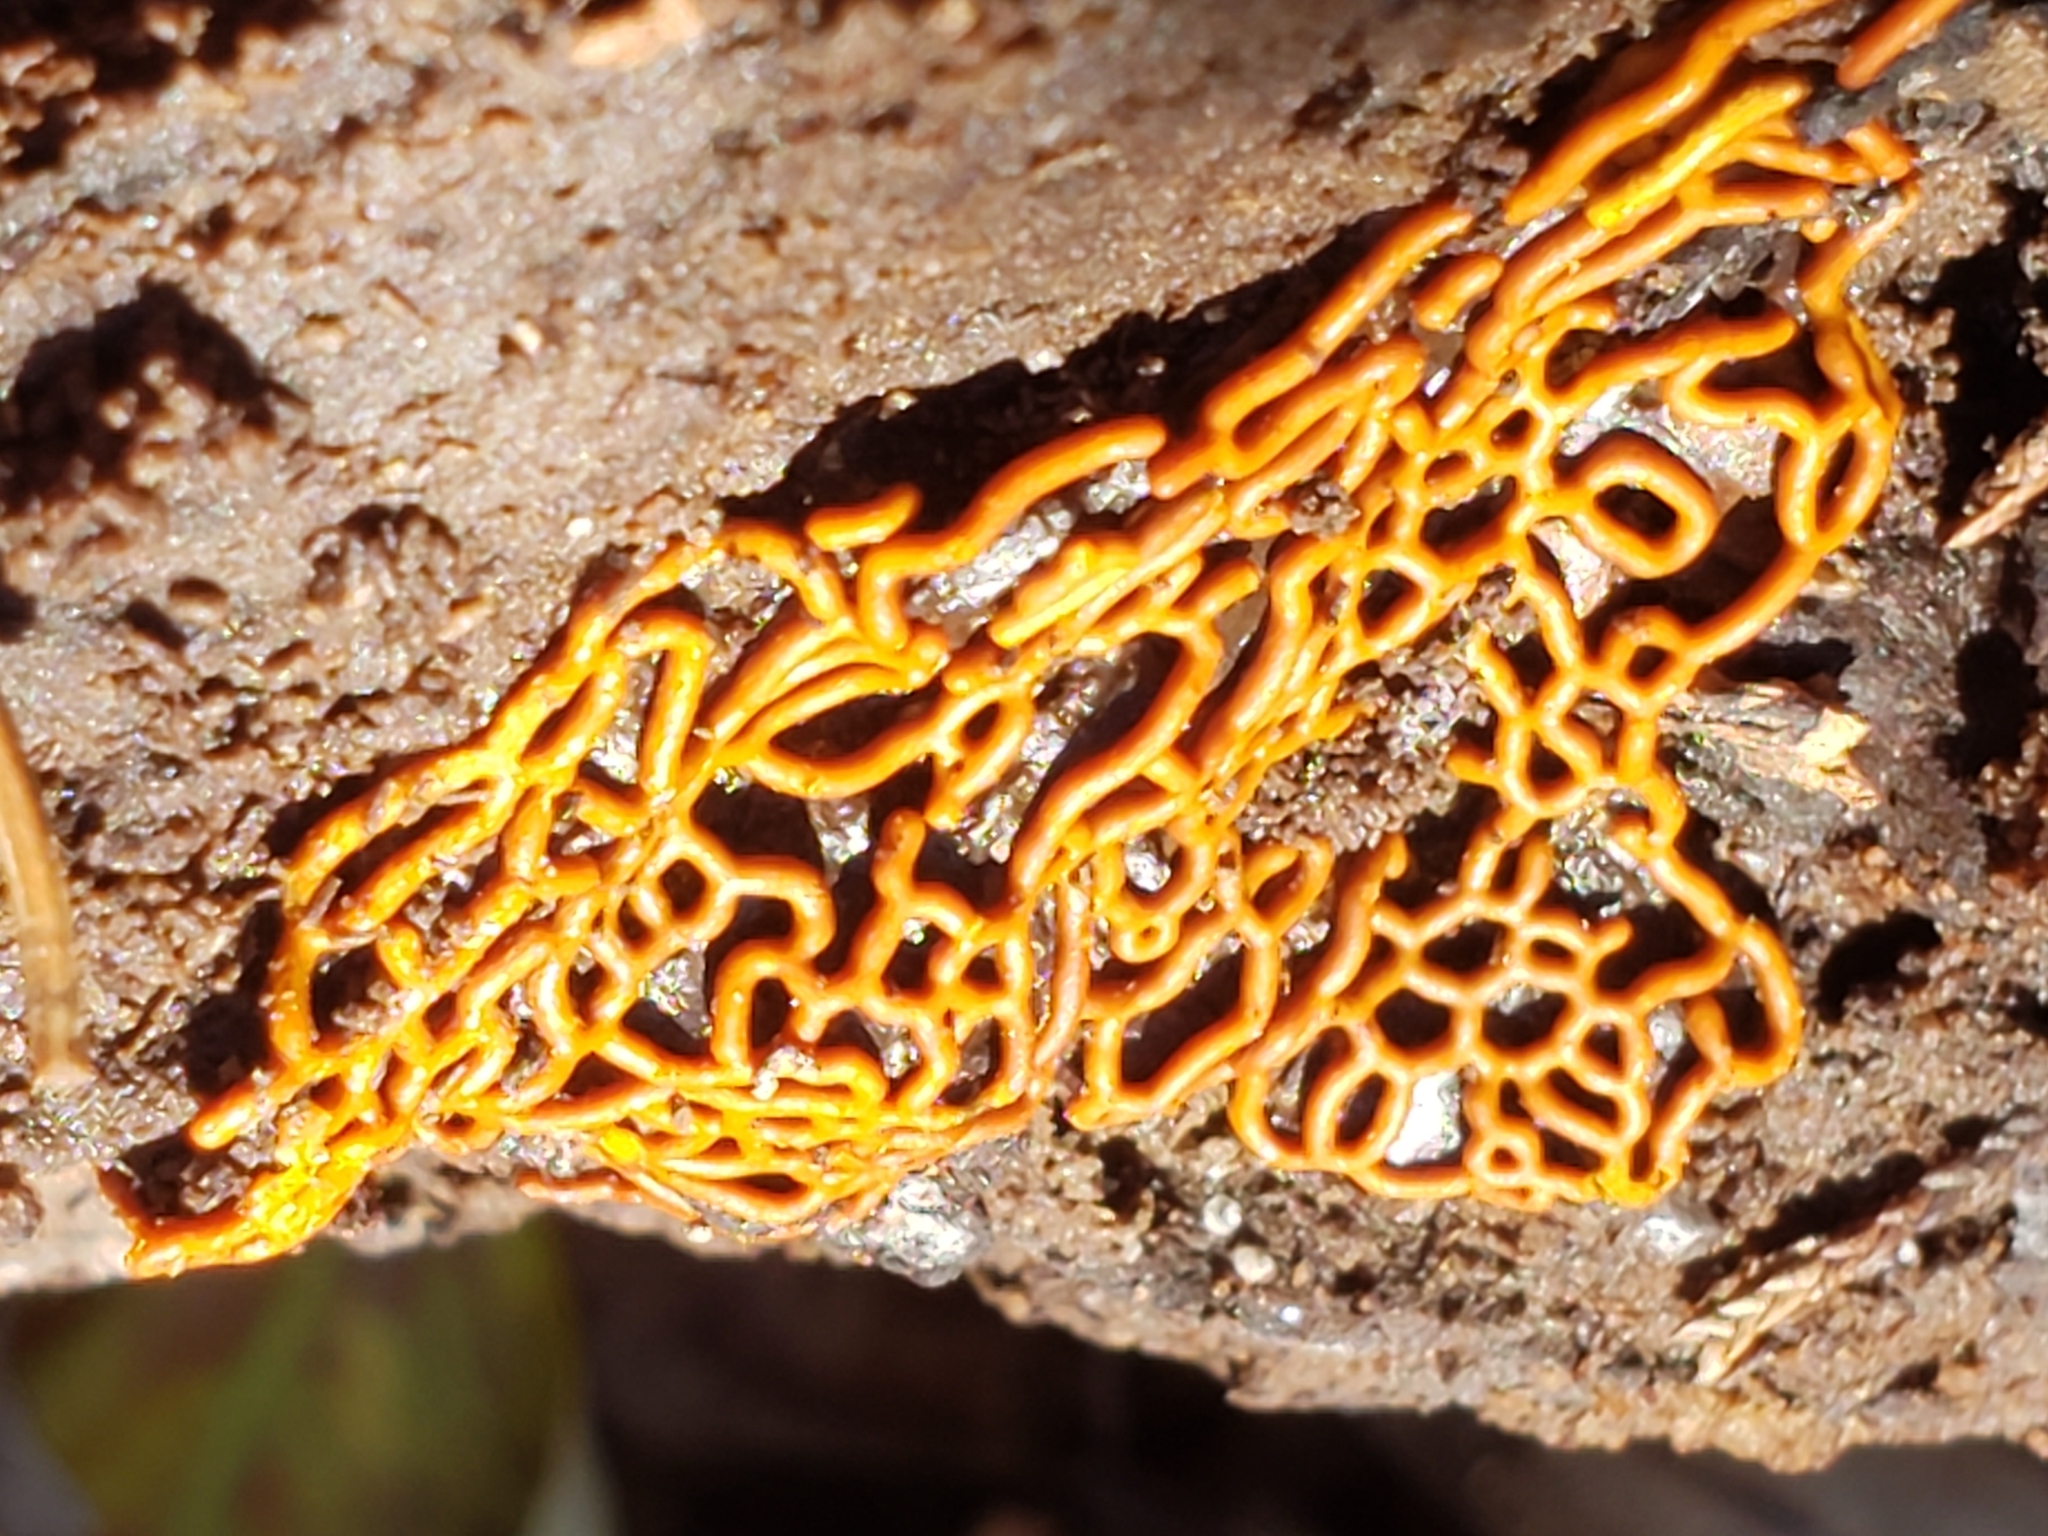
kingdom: Protozoa
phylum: Mycetozoa
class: Myxomycetes
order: Trichiales
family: Arcyriaceae
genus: Hemitrichia
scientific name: Hemitrichia serpula
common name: Pretzel slime mold
